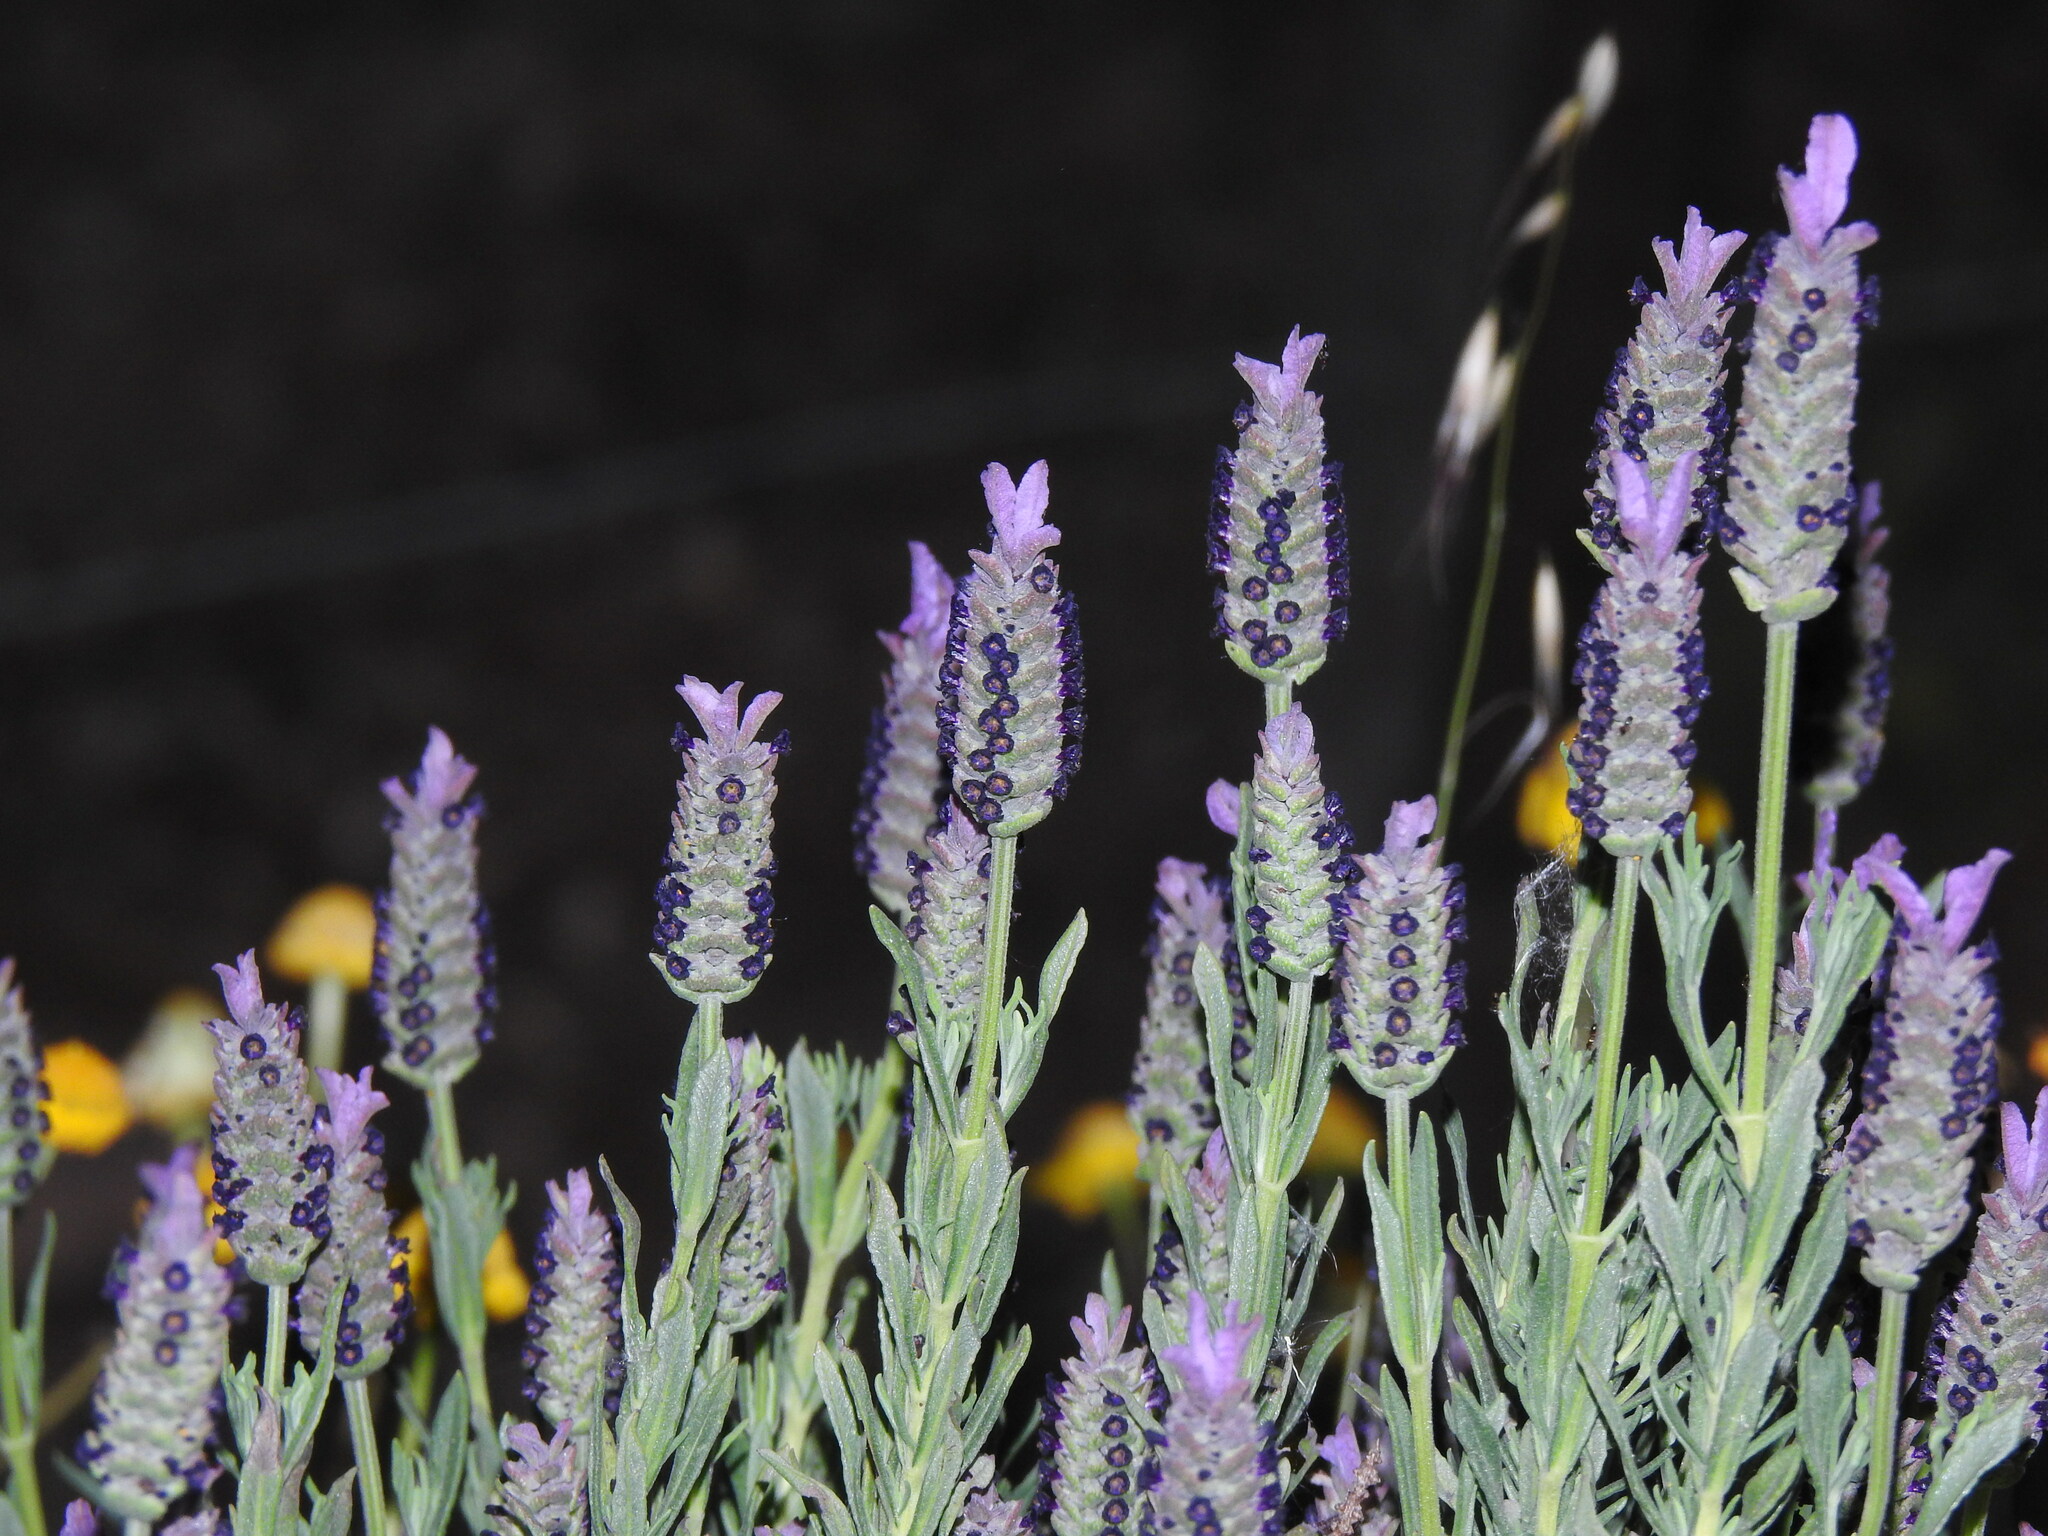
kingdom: Plantae
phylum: Tracheophyta
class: Magnoliopsida
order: Lamiales
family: Lamiaceae
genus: Lavandula
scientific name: Lavandula stoechas
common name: French lavender
